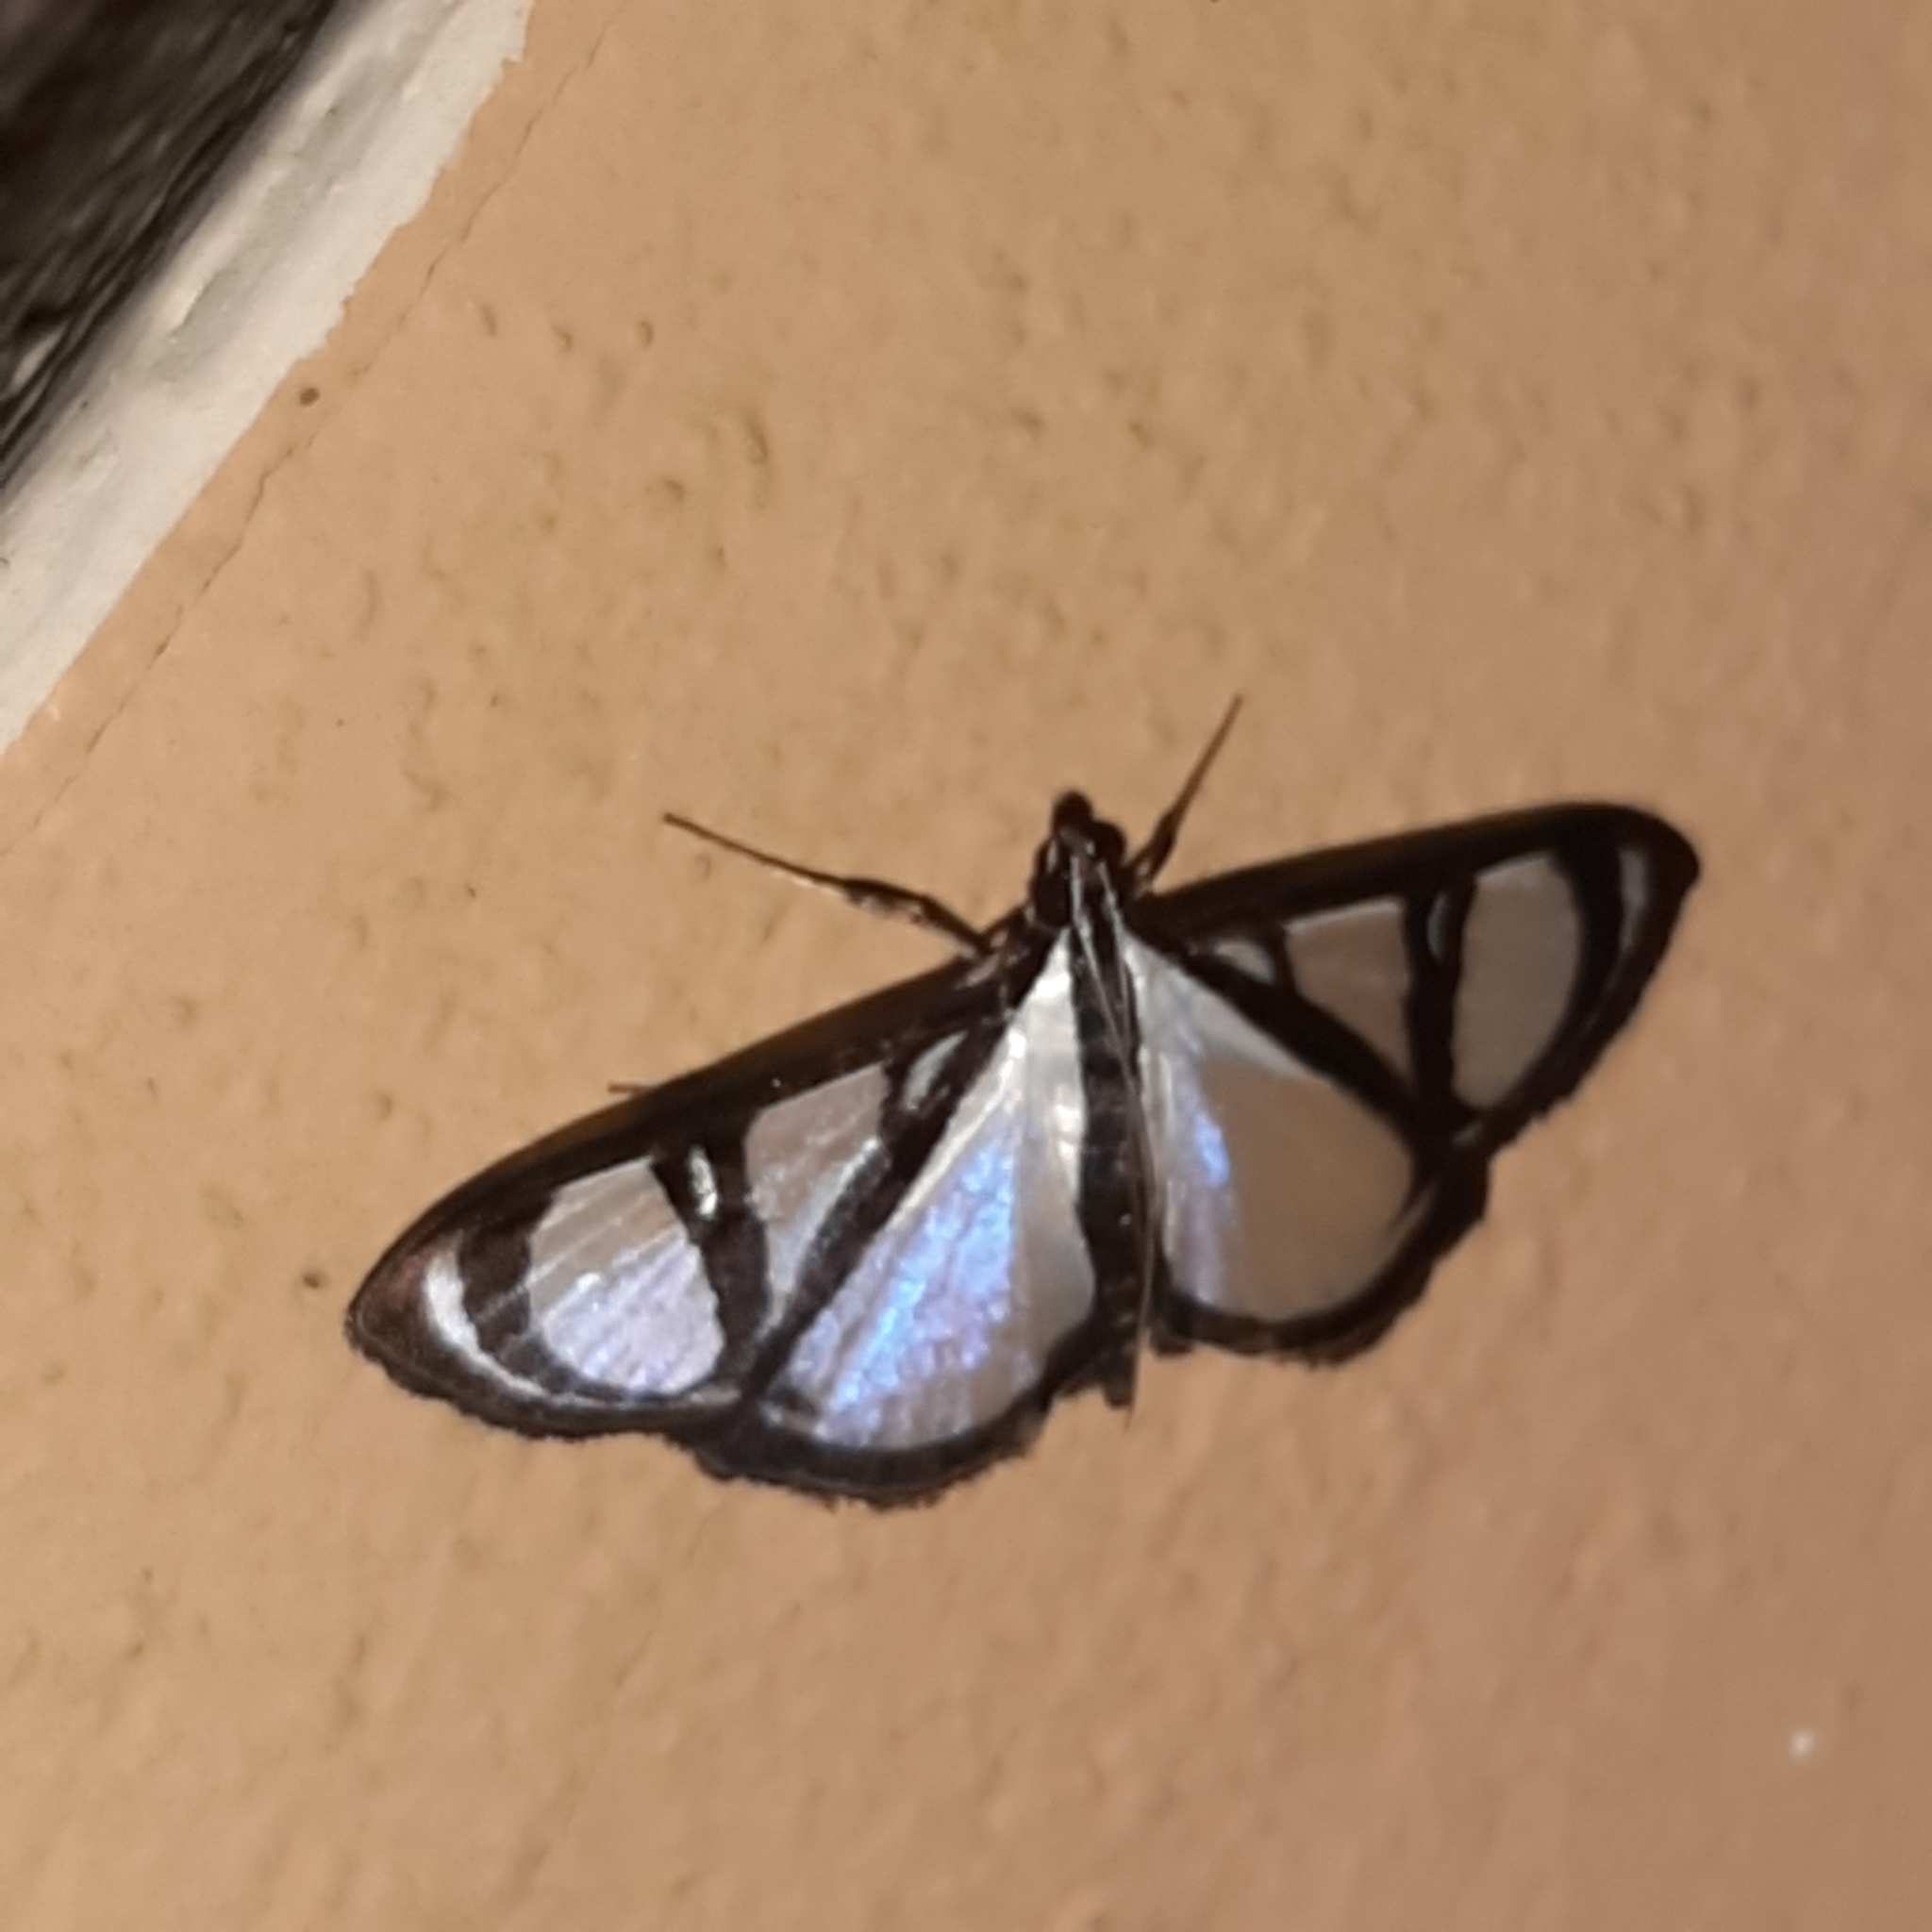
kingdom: Animalia
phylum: Arthropoda
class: Insecta
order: Lepidoptera
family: Crambidae
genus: Glyphodes
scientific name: Glyphodes confinis
